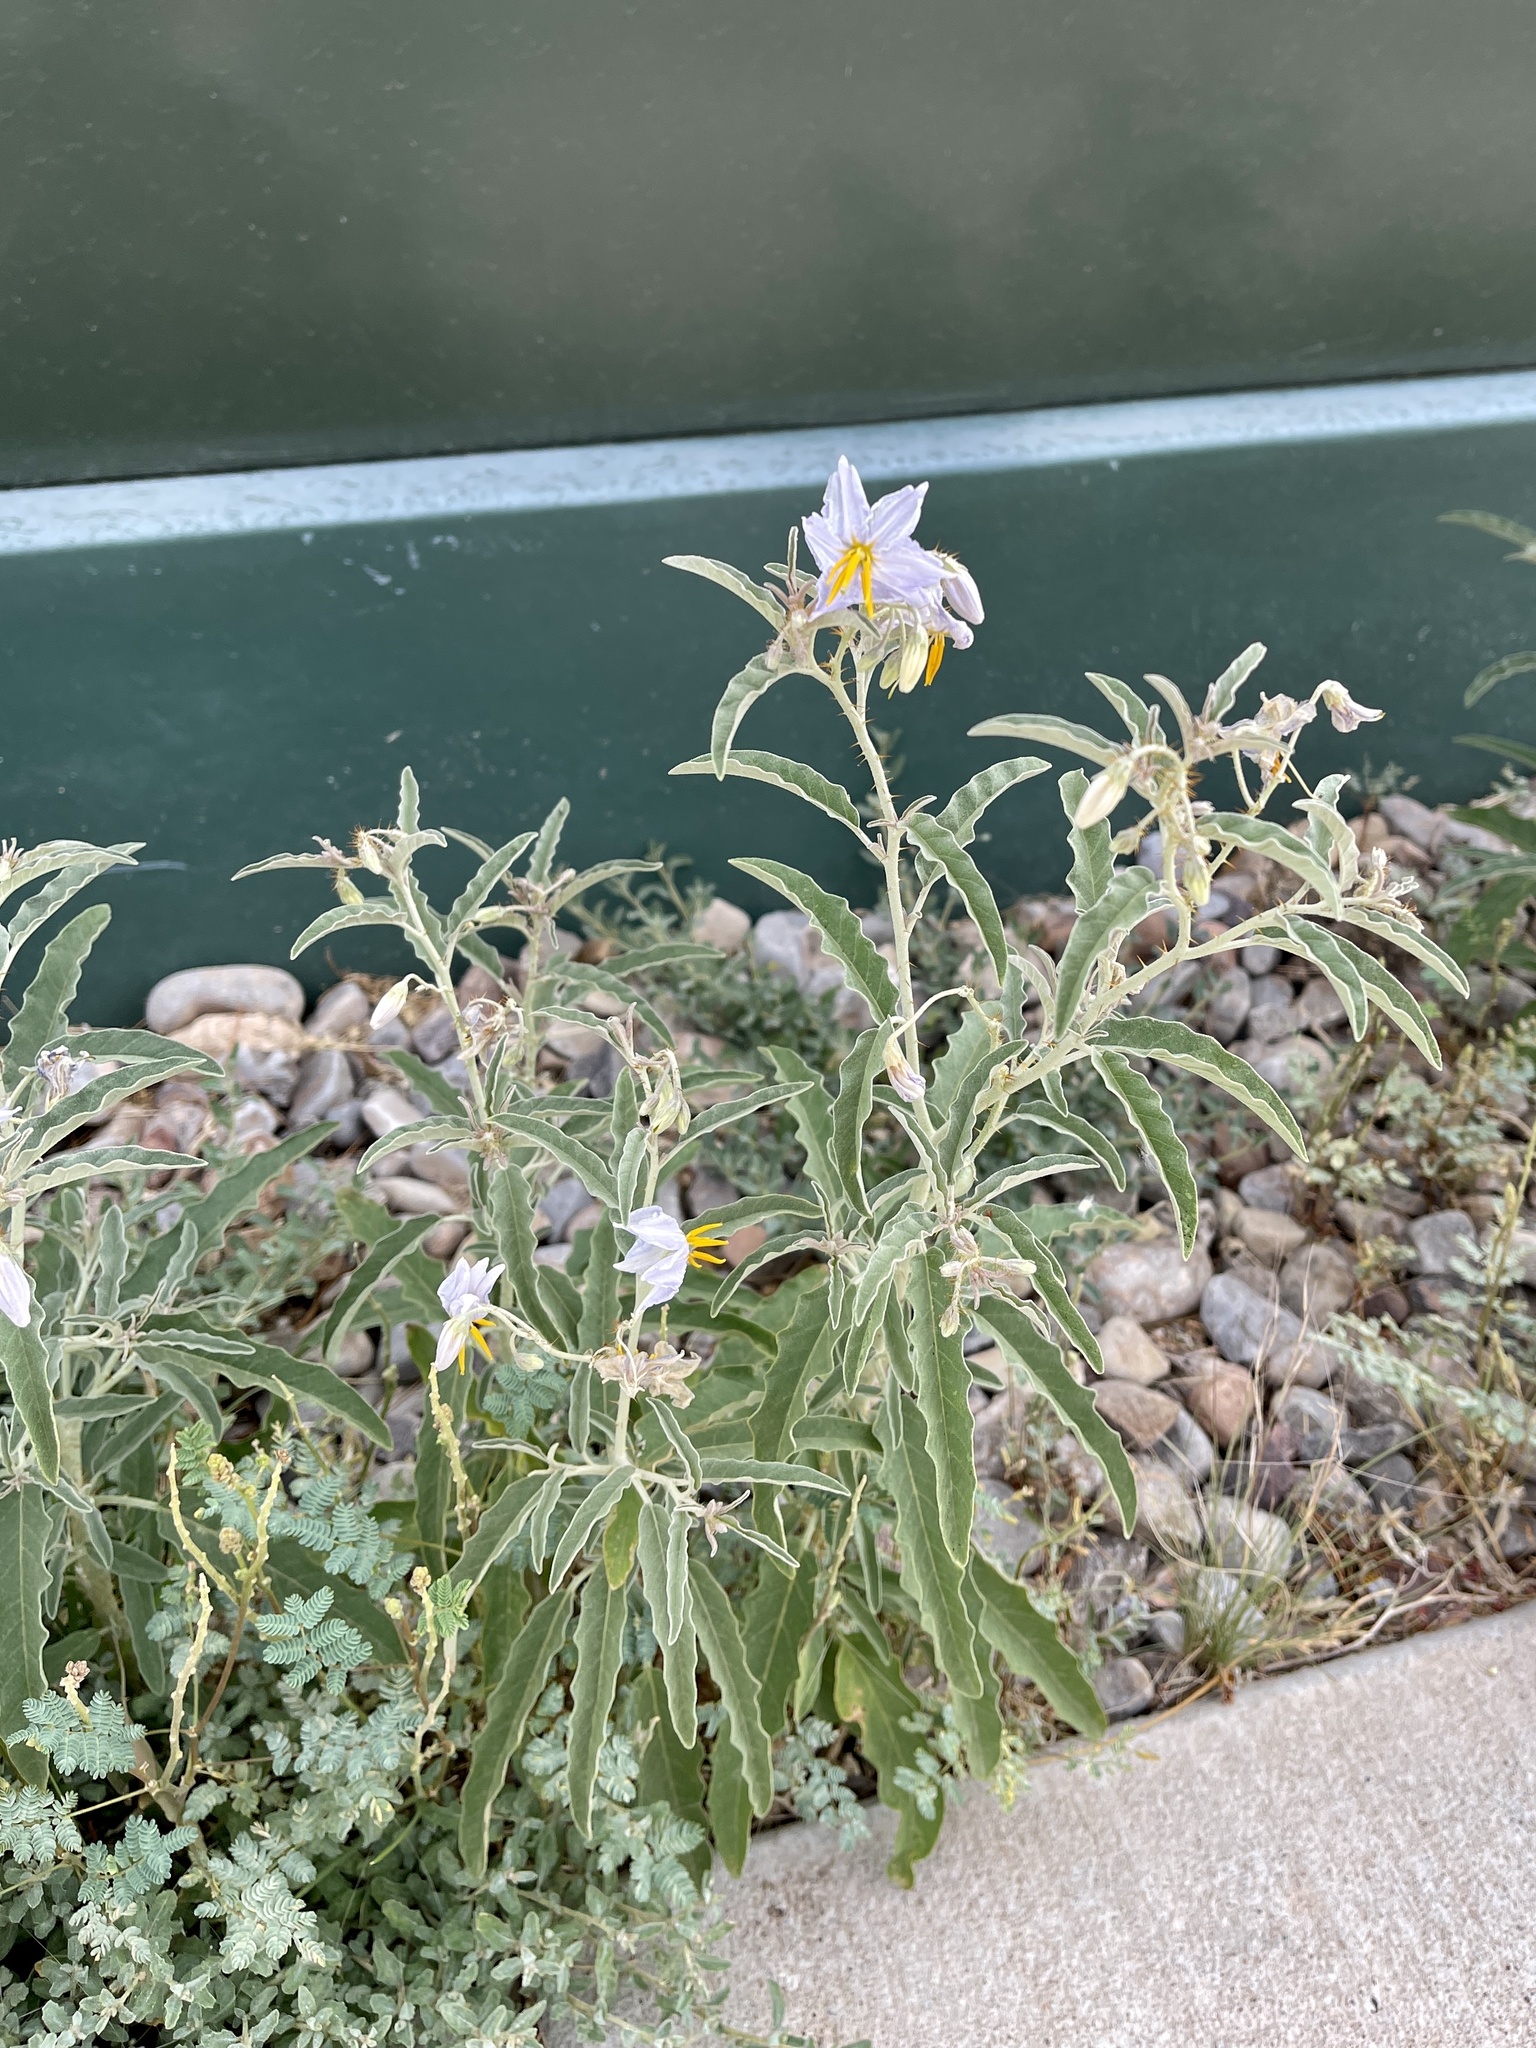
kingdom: Plantae
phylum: Tracheophyta
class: Magnoliopsida
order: Solanales
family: Solanaceae
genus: Solanum
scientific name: Solanum elaeagnifolium
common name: Silverleaf nightshade
